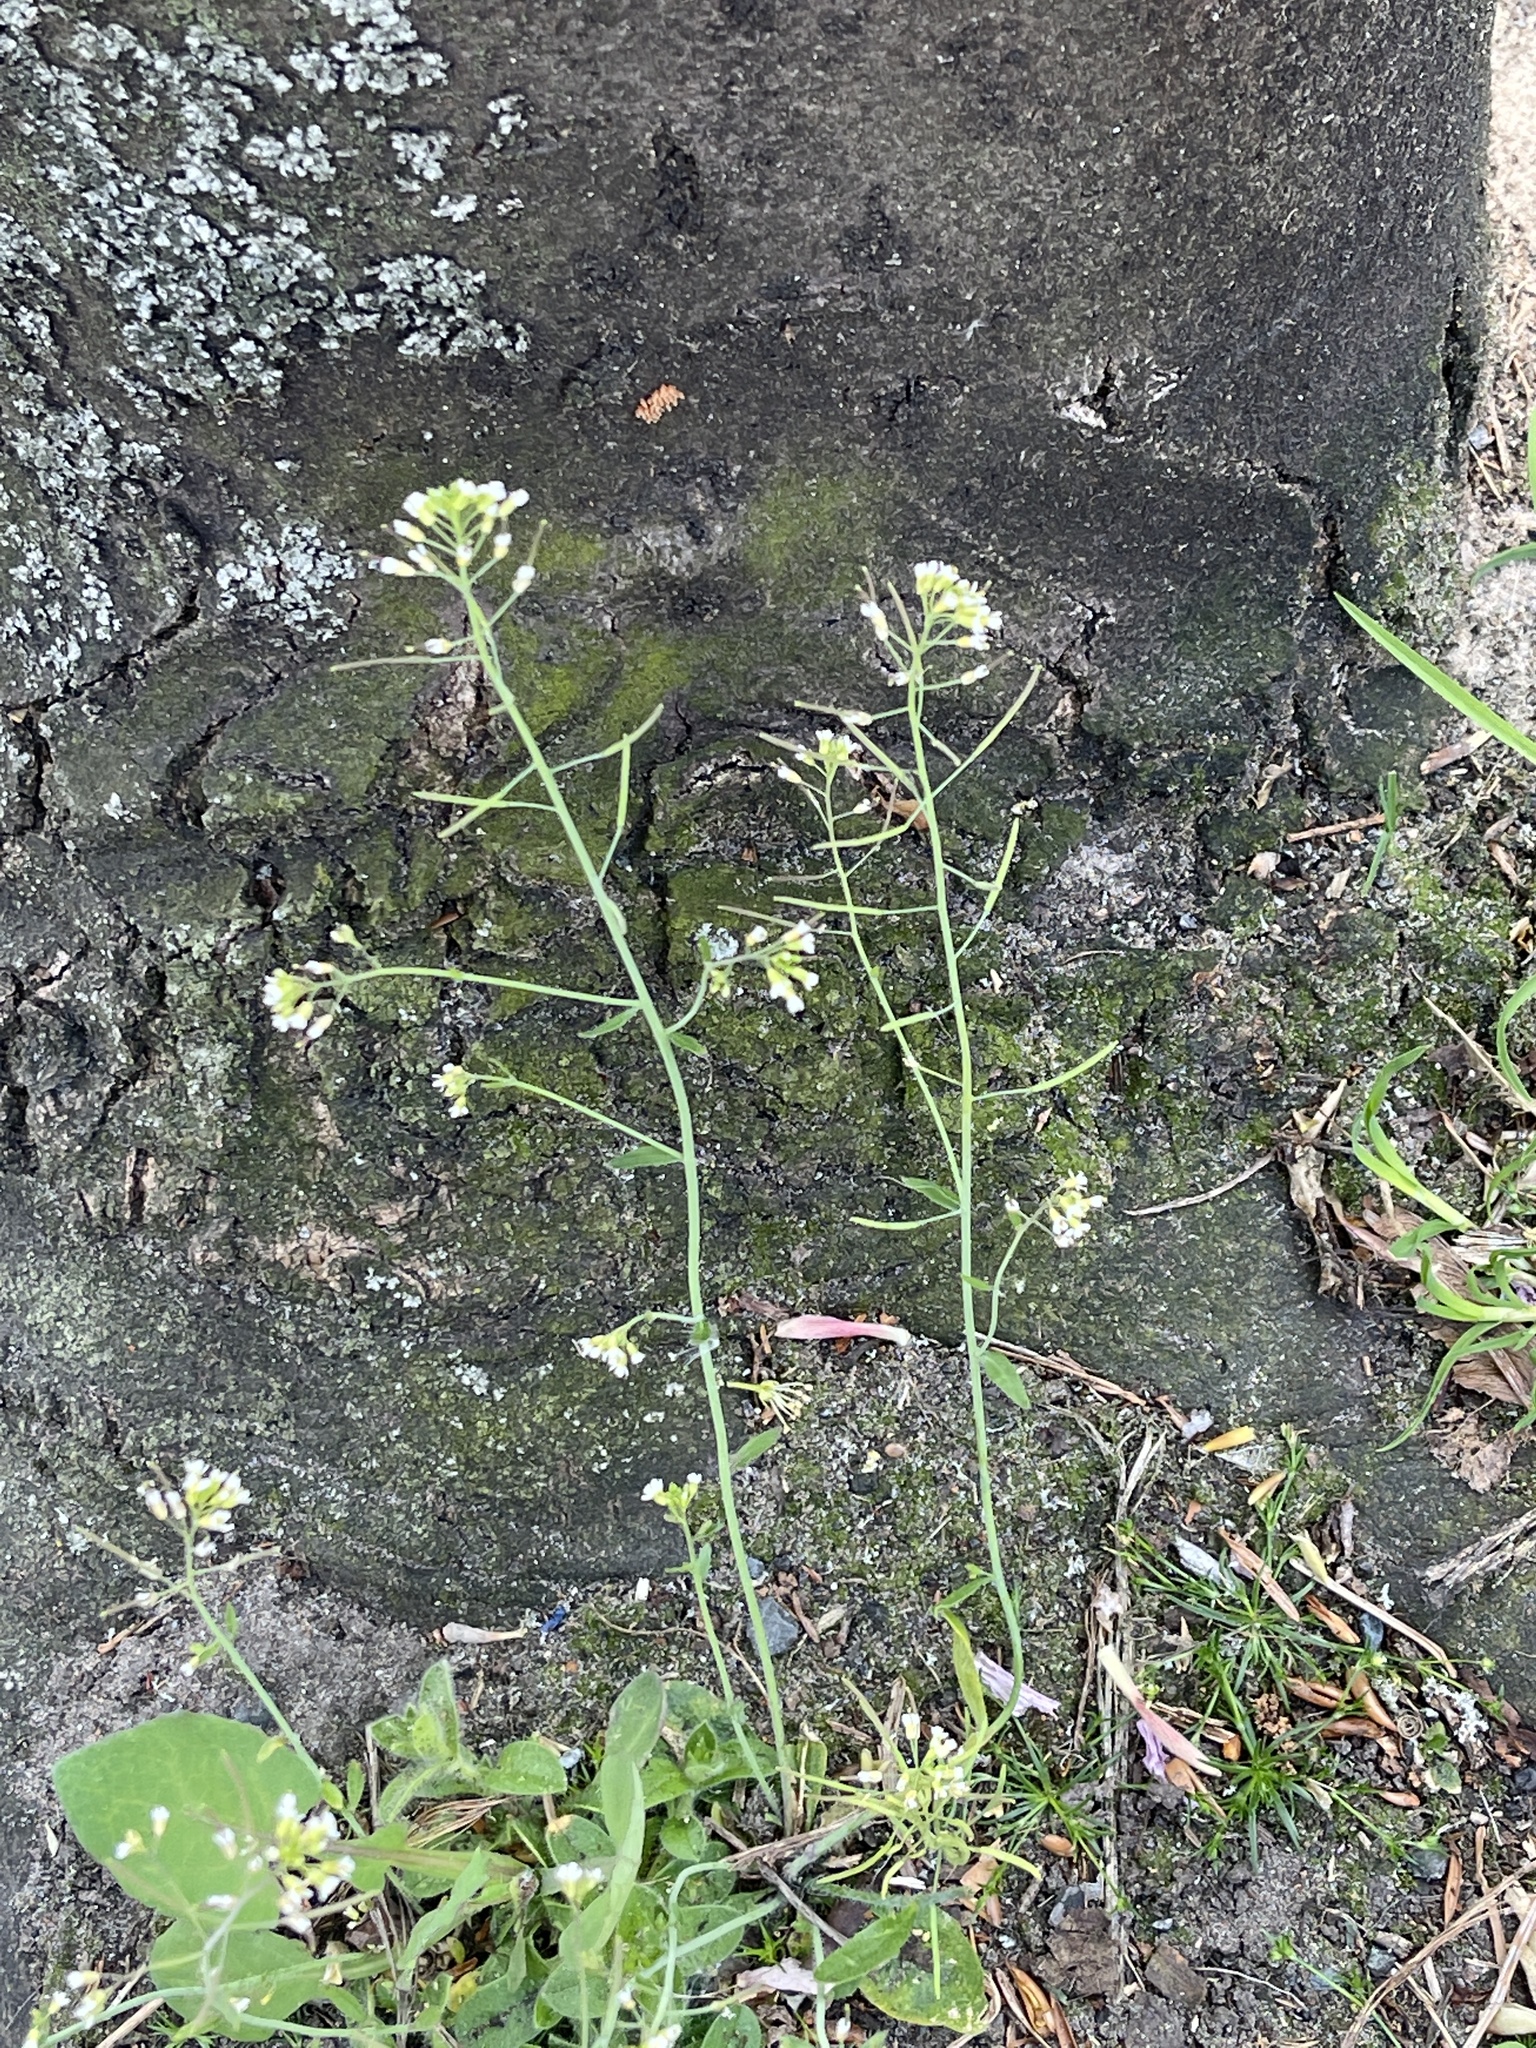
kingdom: Plantae
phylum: Tracheophyta
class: Magnoliopsida
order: Brassicales
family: Brassicaceae
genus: Arabidopsis
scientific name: Arabidopsis thaliana
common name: Thale cress
